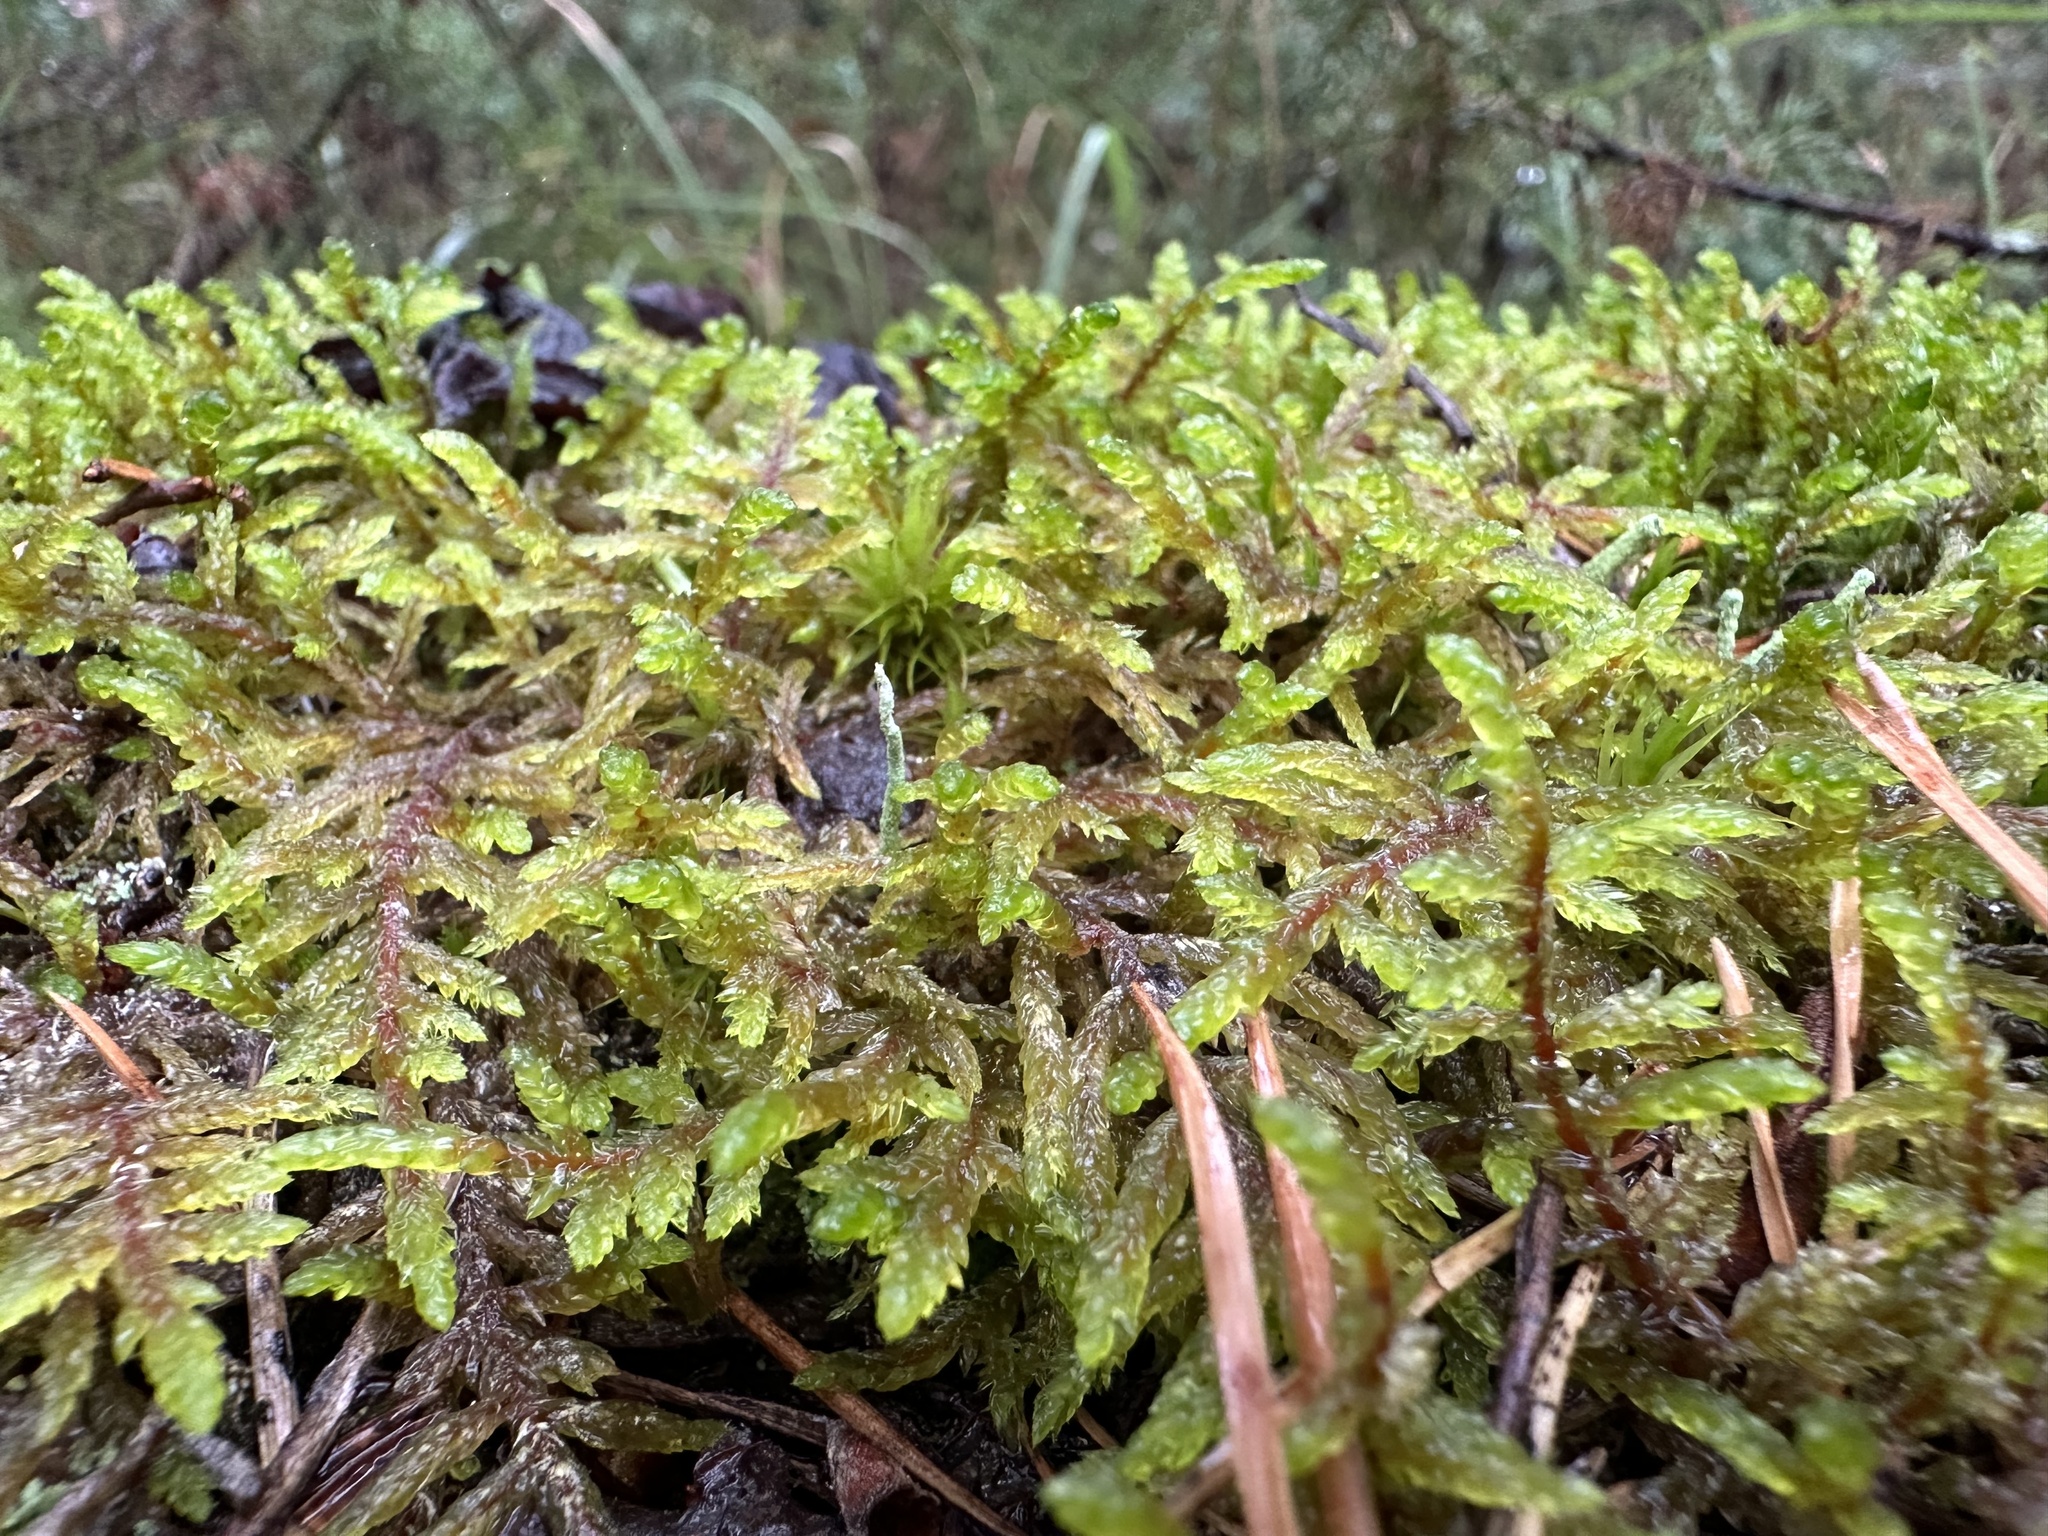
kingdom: Plantae
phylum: Bryophyta
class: Bryopsida
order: Hypnales
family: Hylocomiaceae
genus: Pleurozium
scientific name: Pleurozium schreberi
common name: Red-stemmed feather moss
